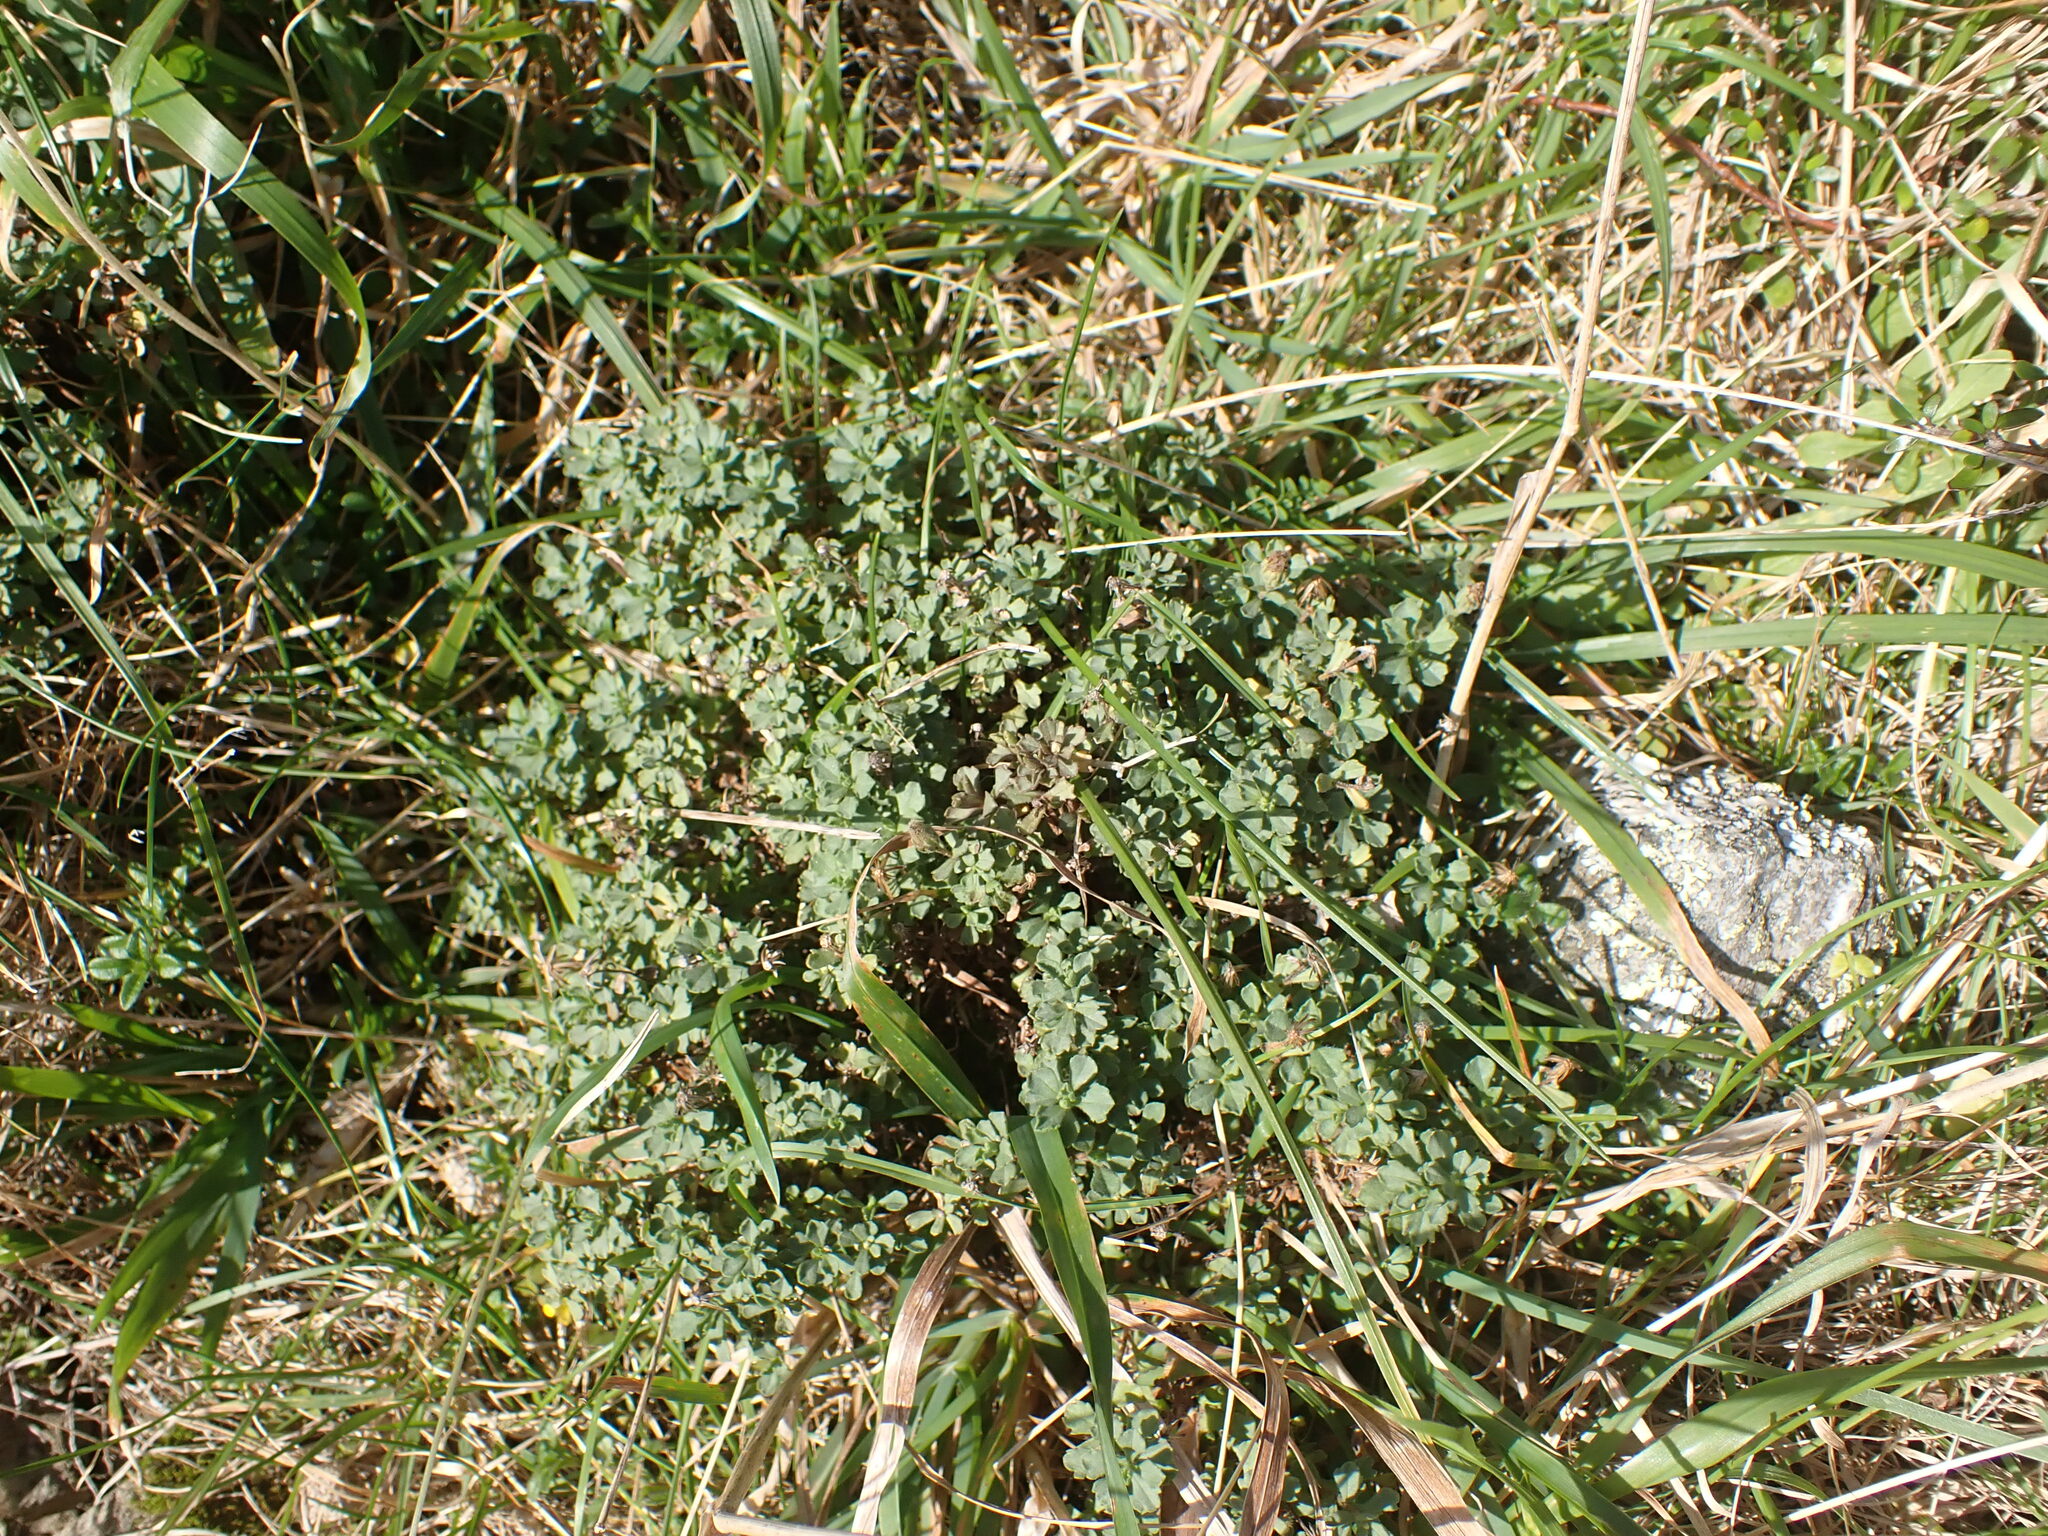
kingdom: Plantae
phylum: Tracheophyta
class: Magnoliopsida
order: Asterales
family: Asteraceae
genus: Vittadinia
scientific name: Vittadinia australis
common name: White fuzzweed
